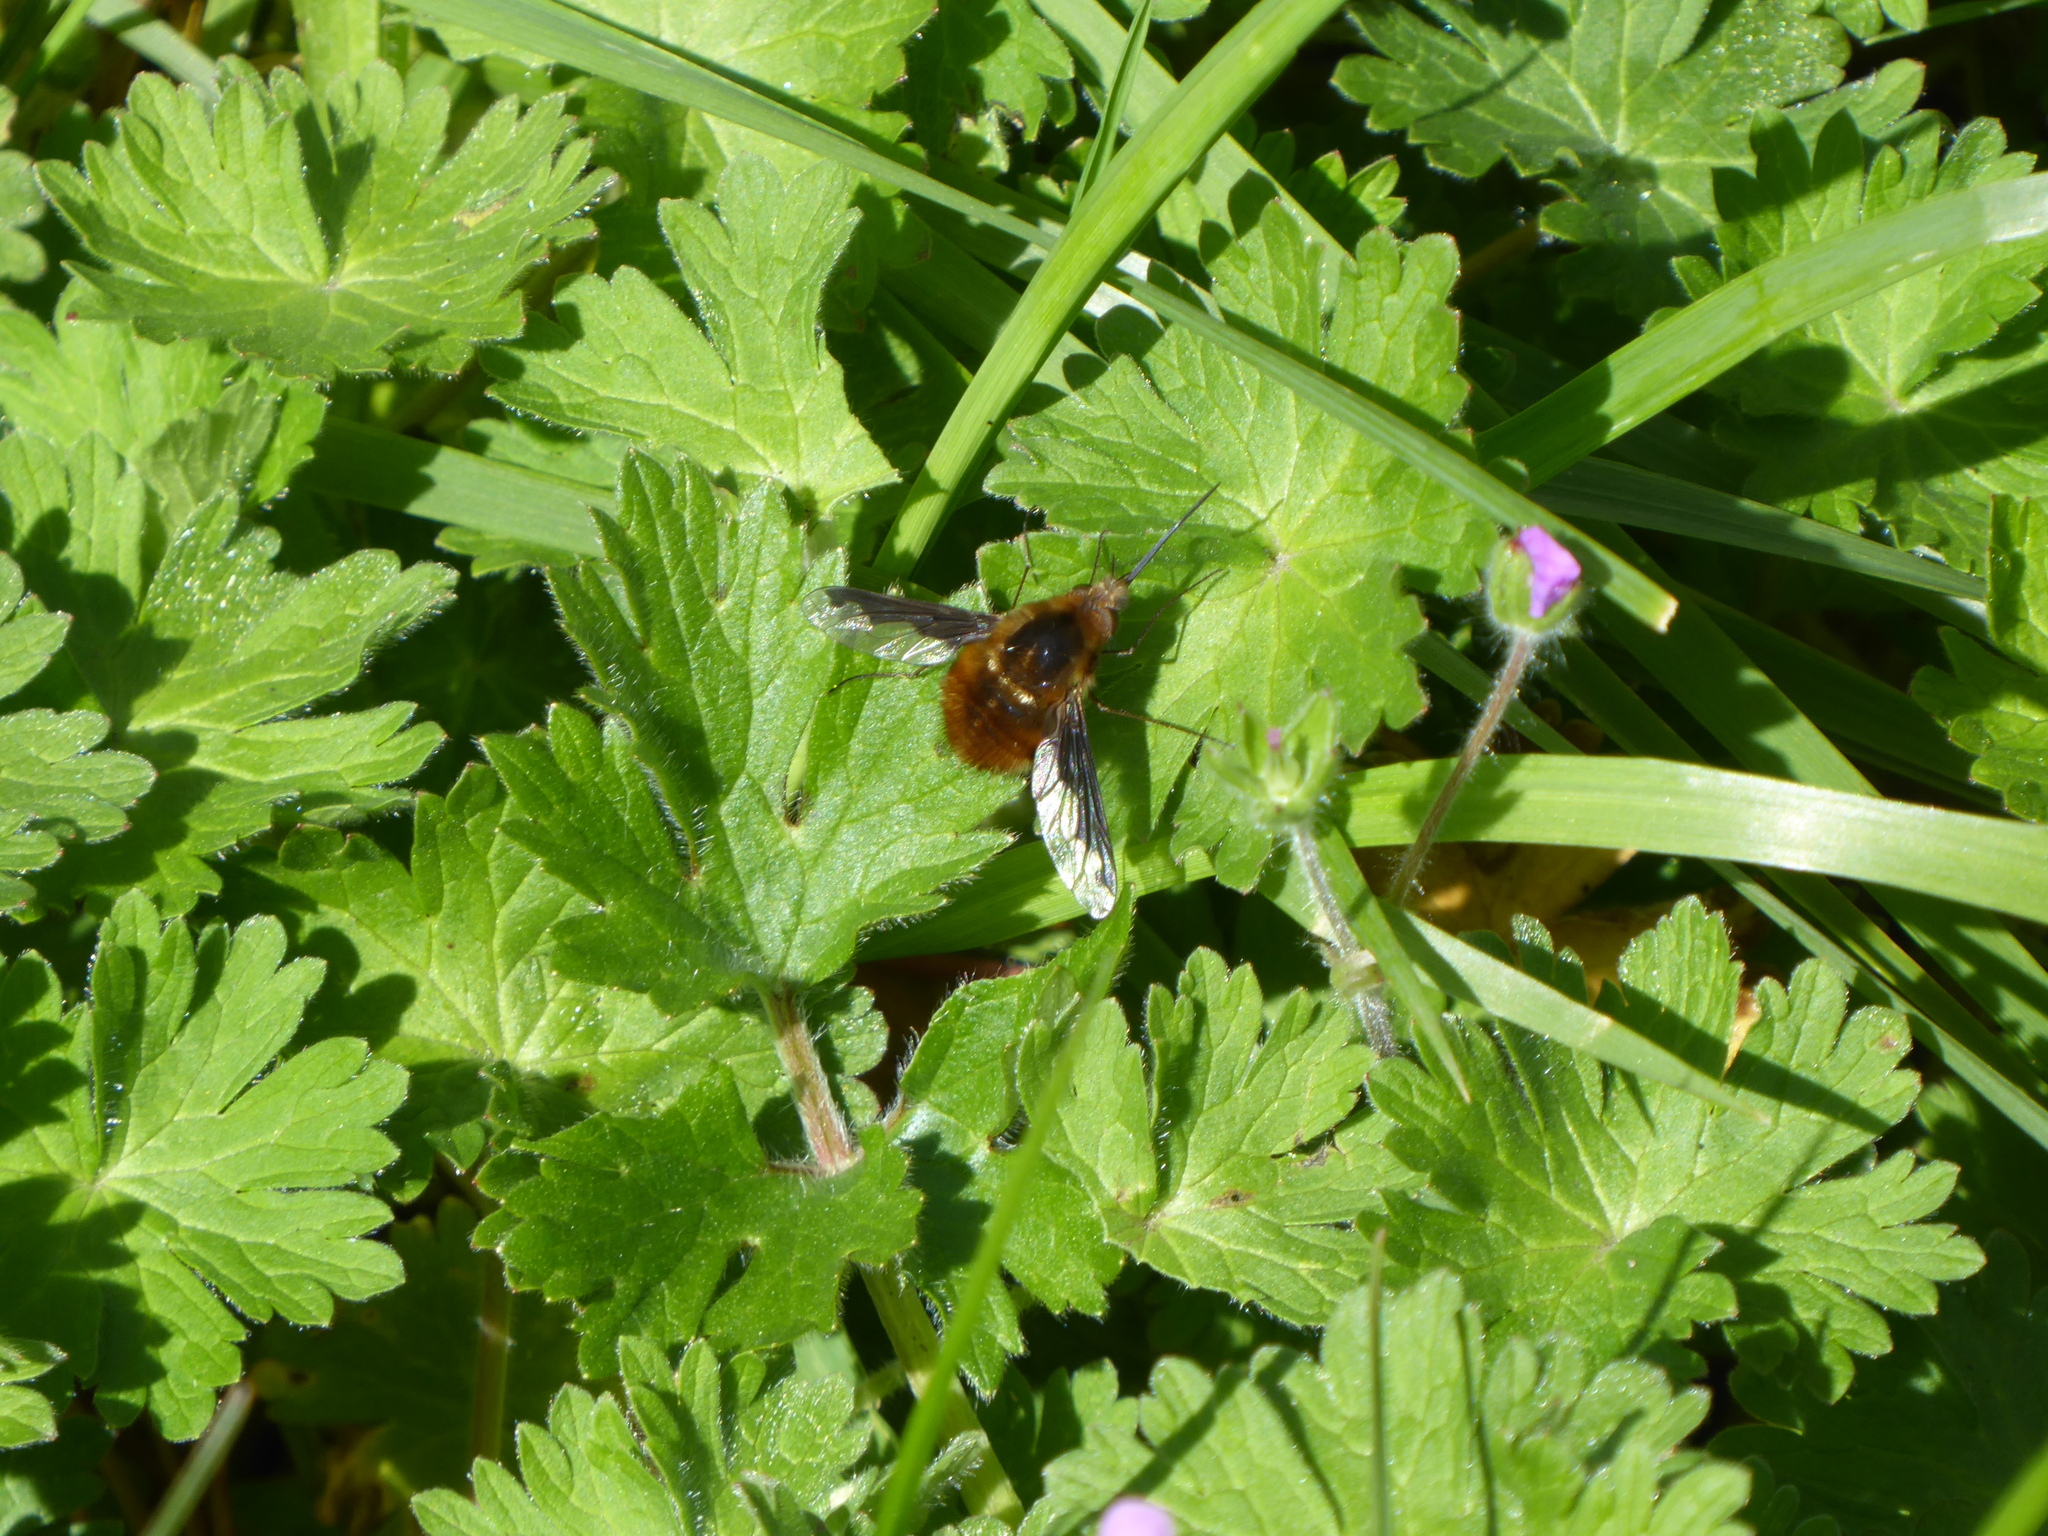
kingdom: Animalia
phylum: Arthropoda
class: Insecta
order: Diptera
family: Bombyliidae
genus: Bombylius
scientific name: Bombylius major
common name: Bee fly
